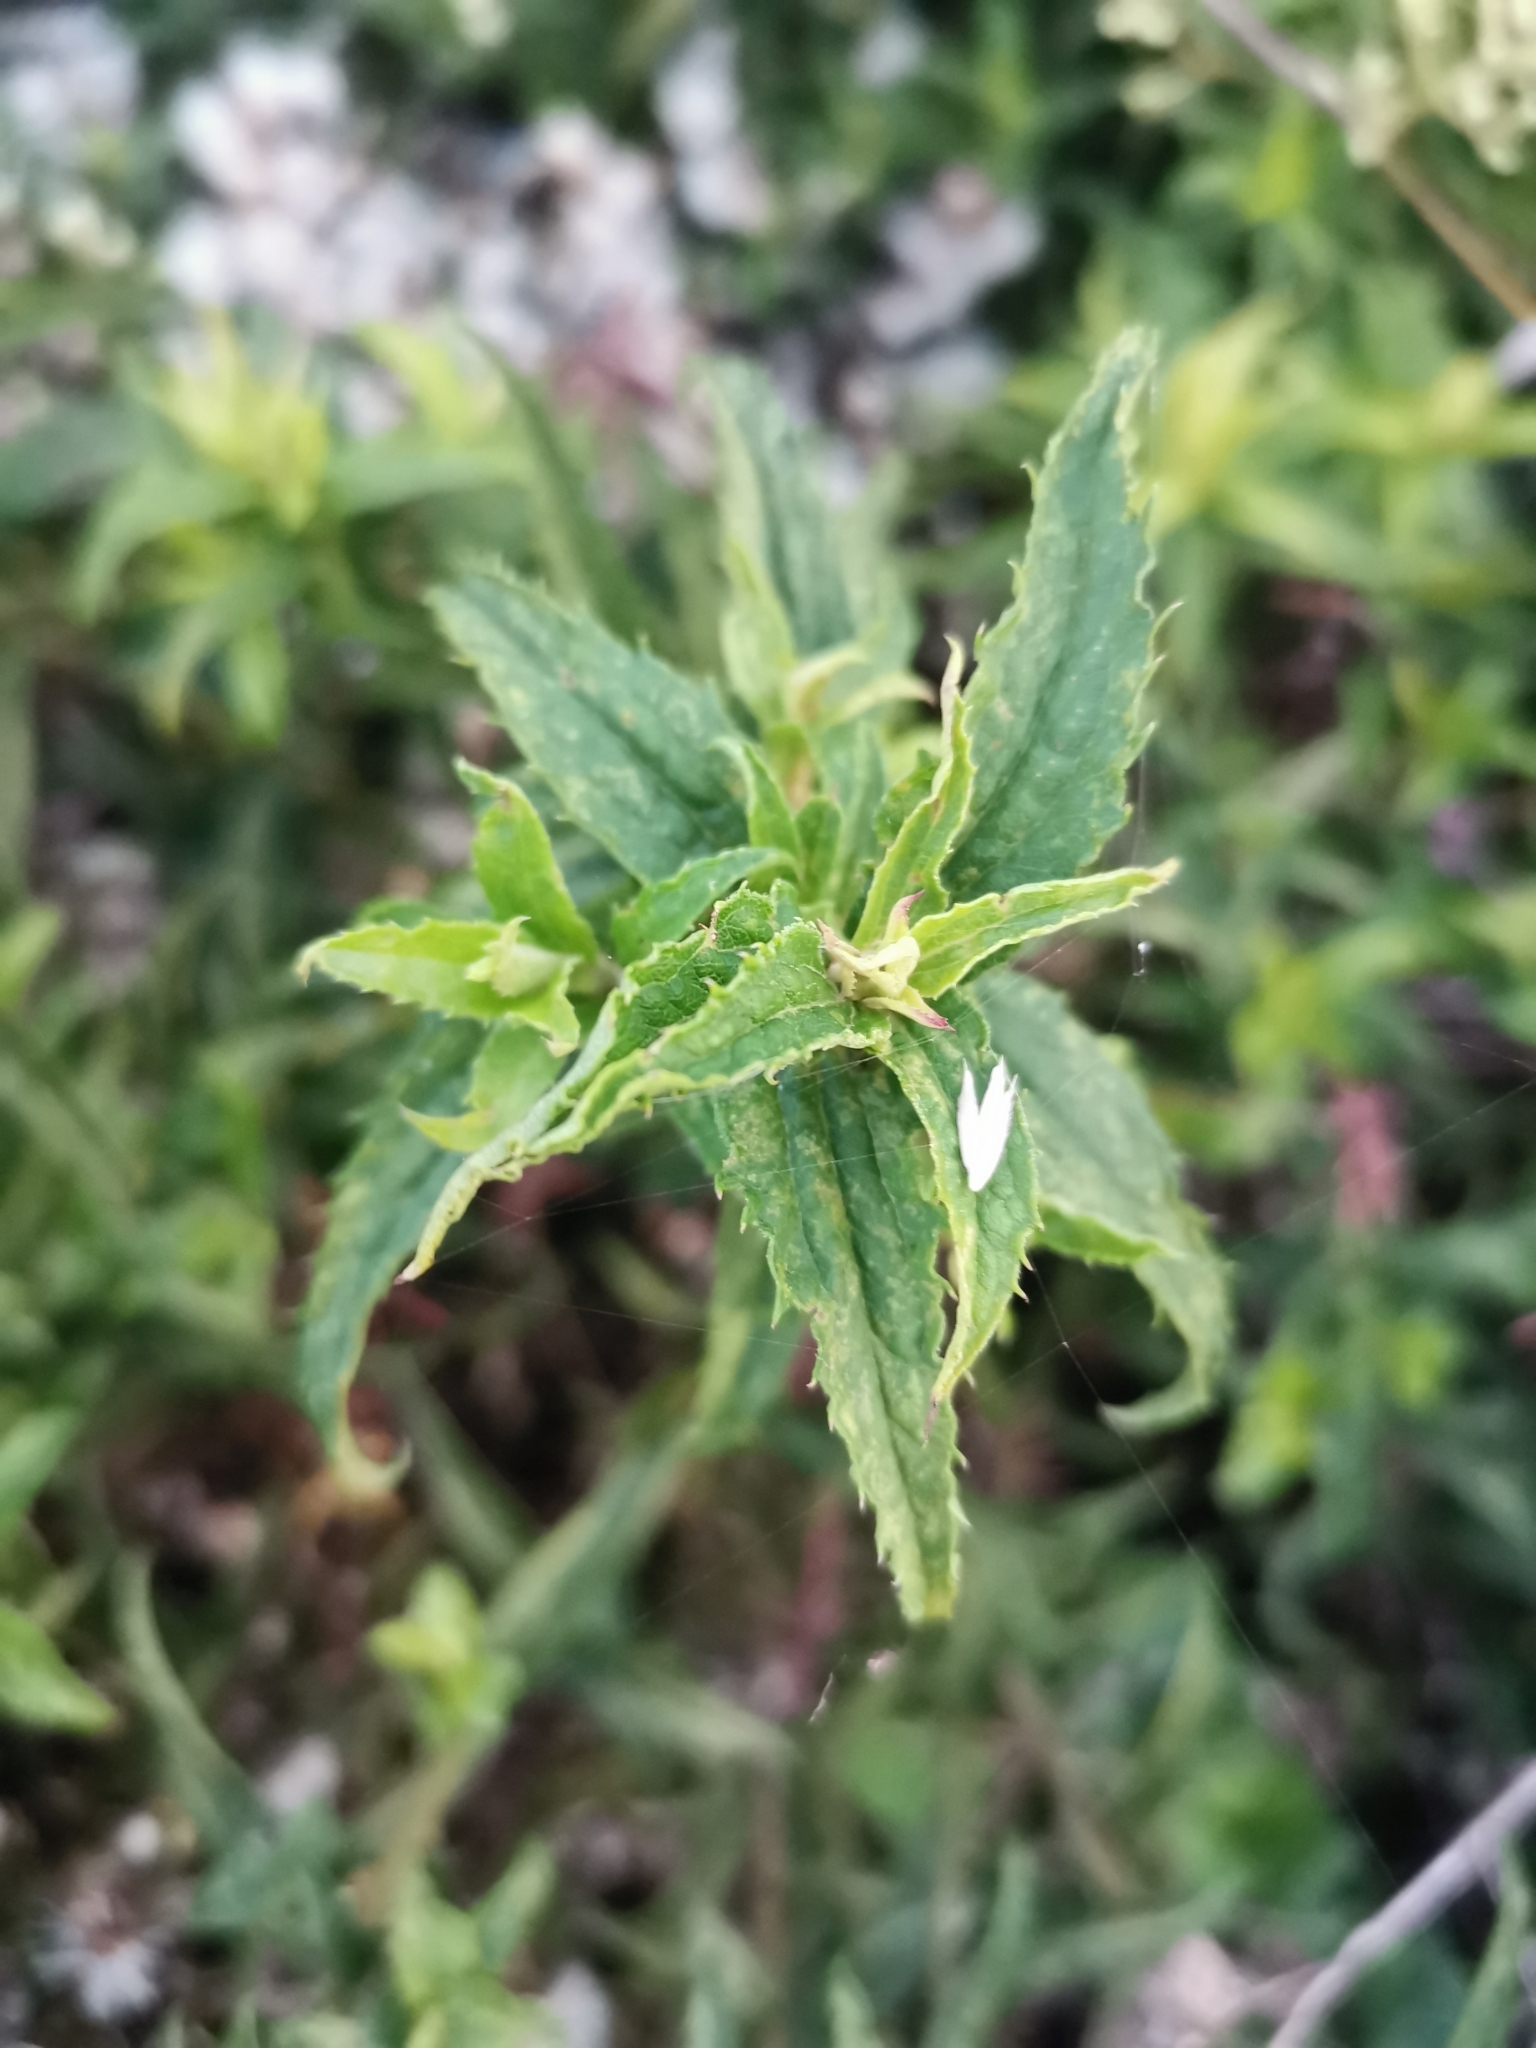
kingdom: Plantae
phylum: Tracheophyta
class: Magnoliopsida
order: Asterales
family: Asteraceae
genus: Baccharis
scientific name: Baccharis racemosa
